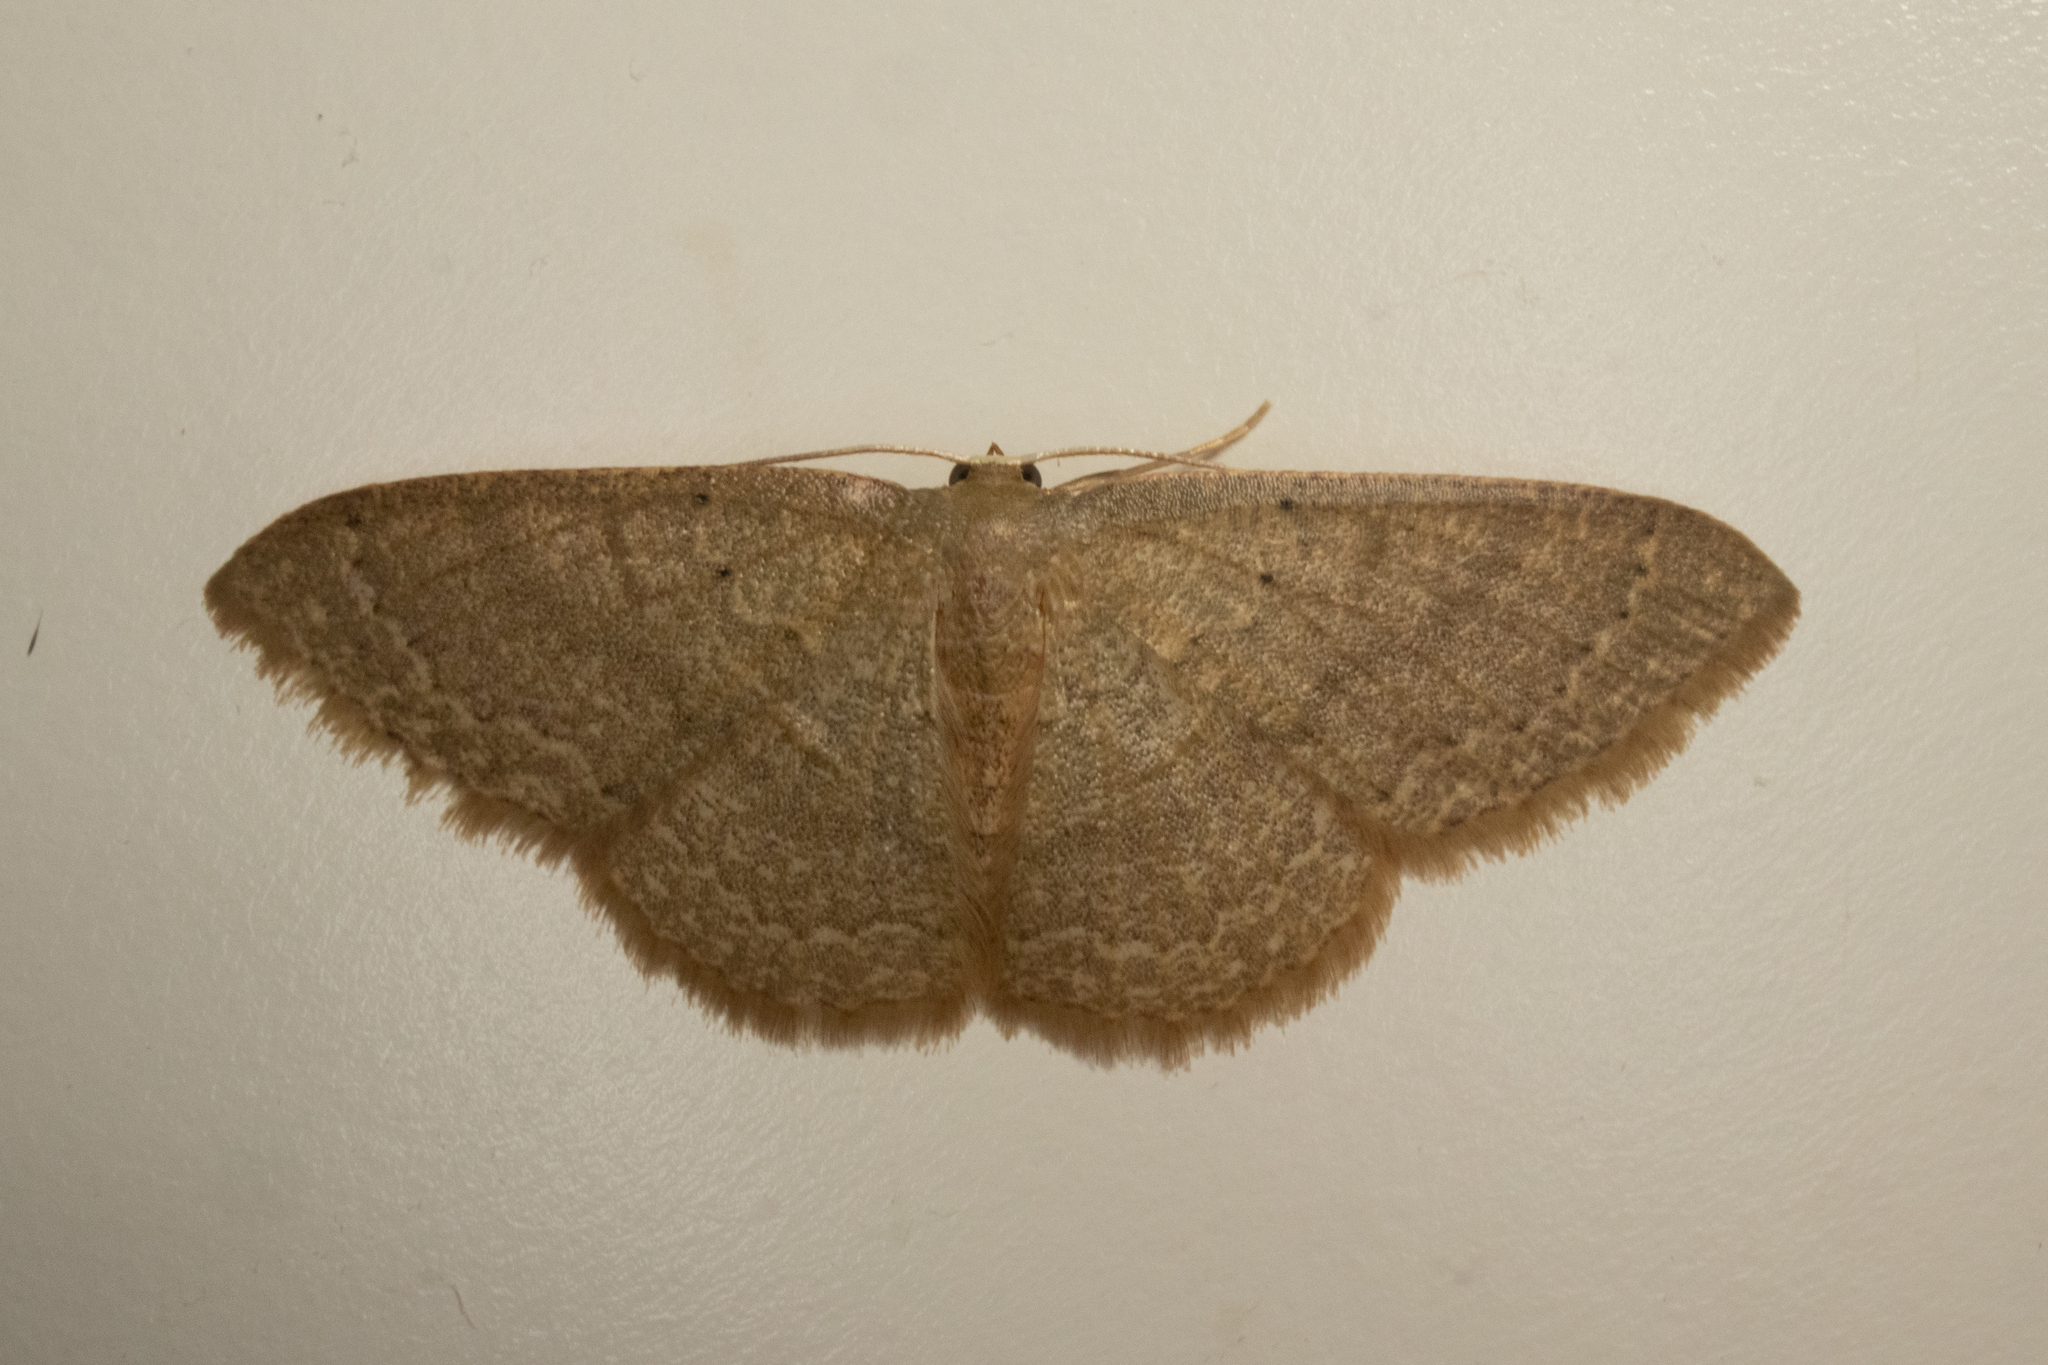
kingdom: Animalia
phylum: Arthropoda
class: Insecta
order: Lepidoptera
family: Geometridae
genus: Pleuroprucha
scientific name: Pleuroprucha insulsaria
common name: Common tan wave
